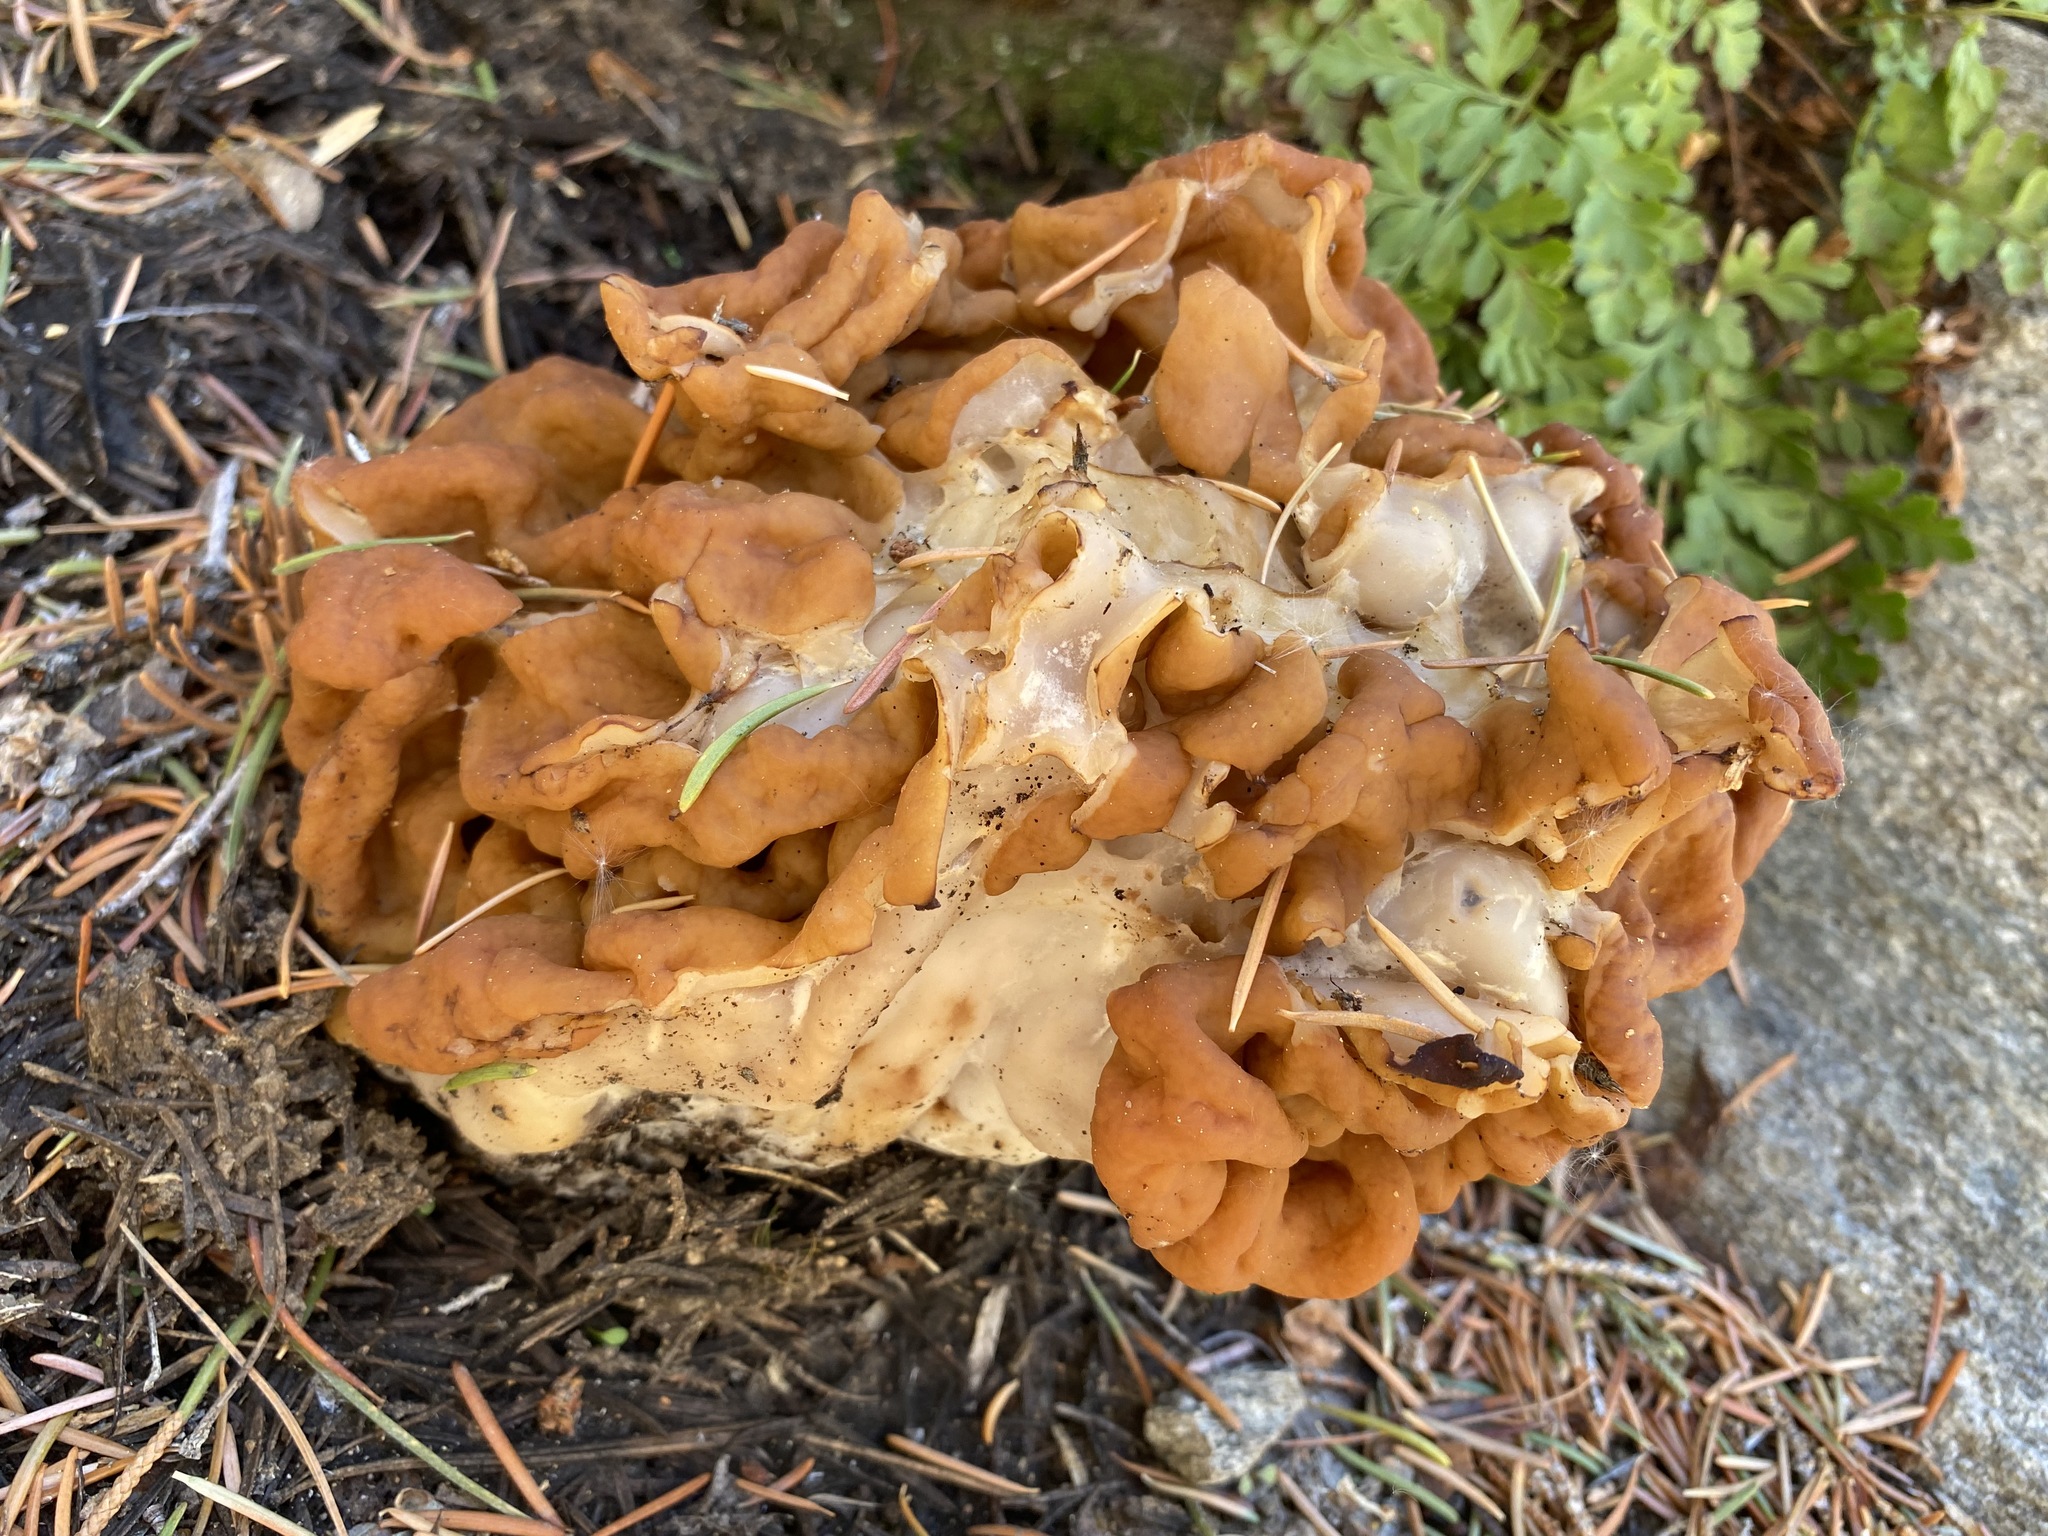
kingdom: Fungi
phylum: Ascomycota
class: Pezizomycetes
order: Pezizales
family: Discinaceae
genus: Discina
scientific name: Discina montana
